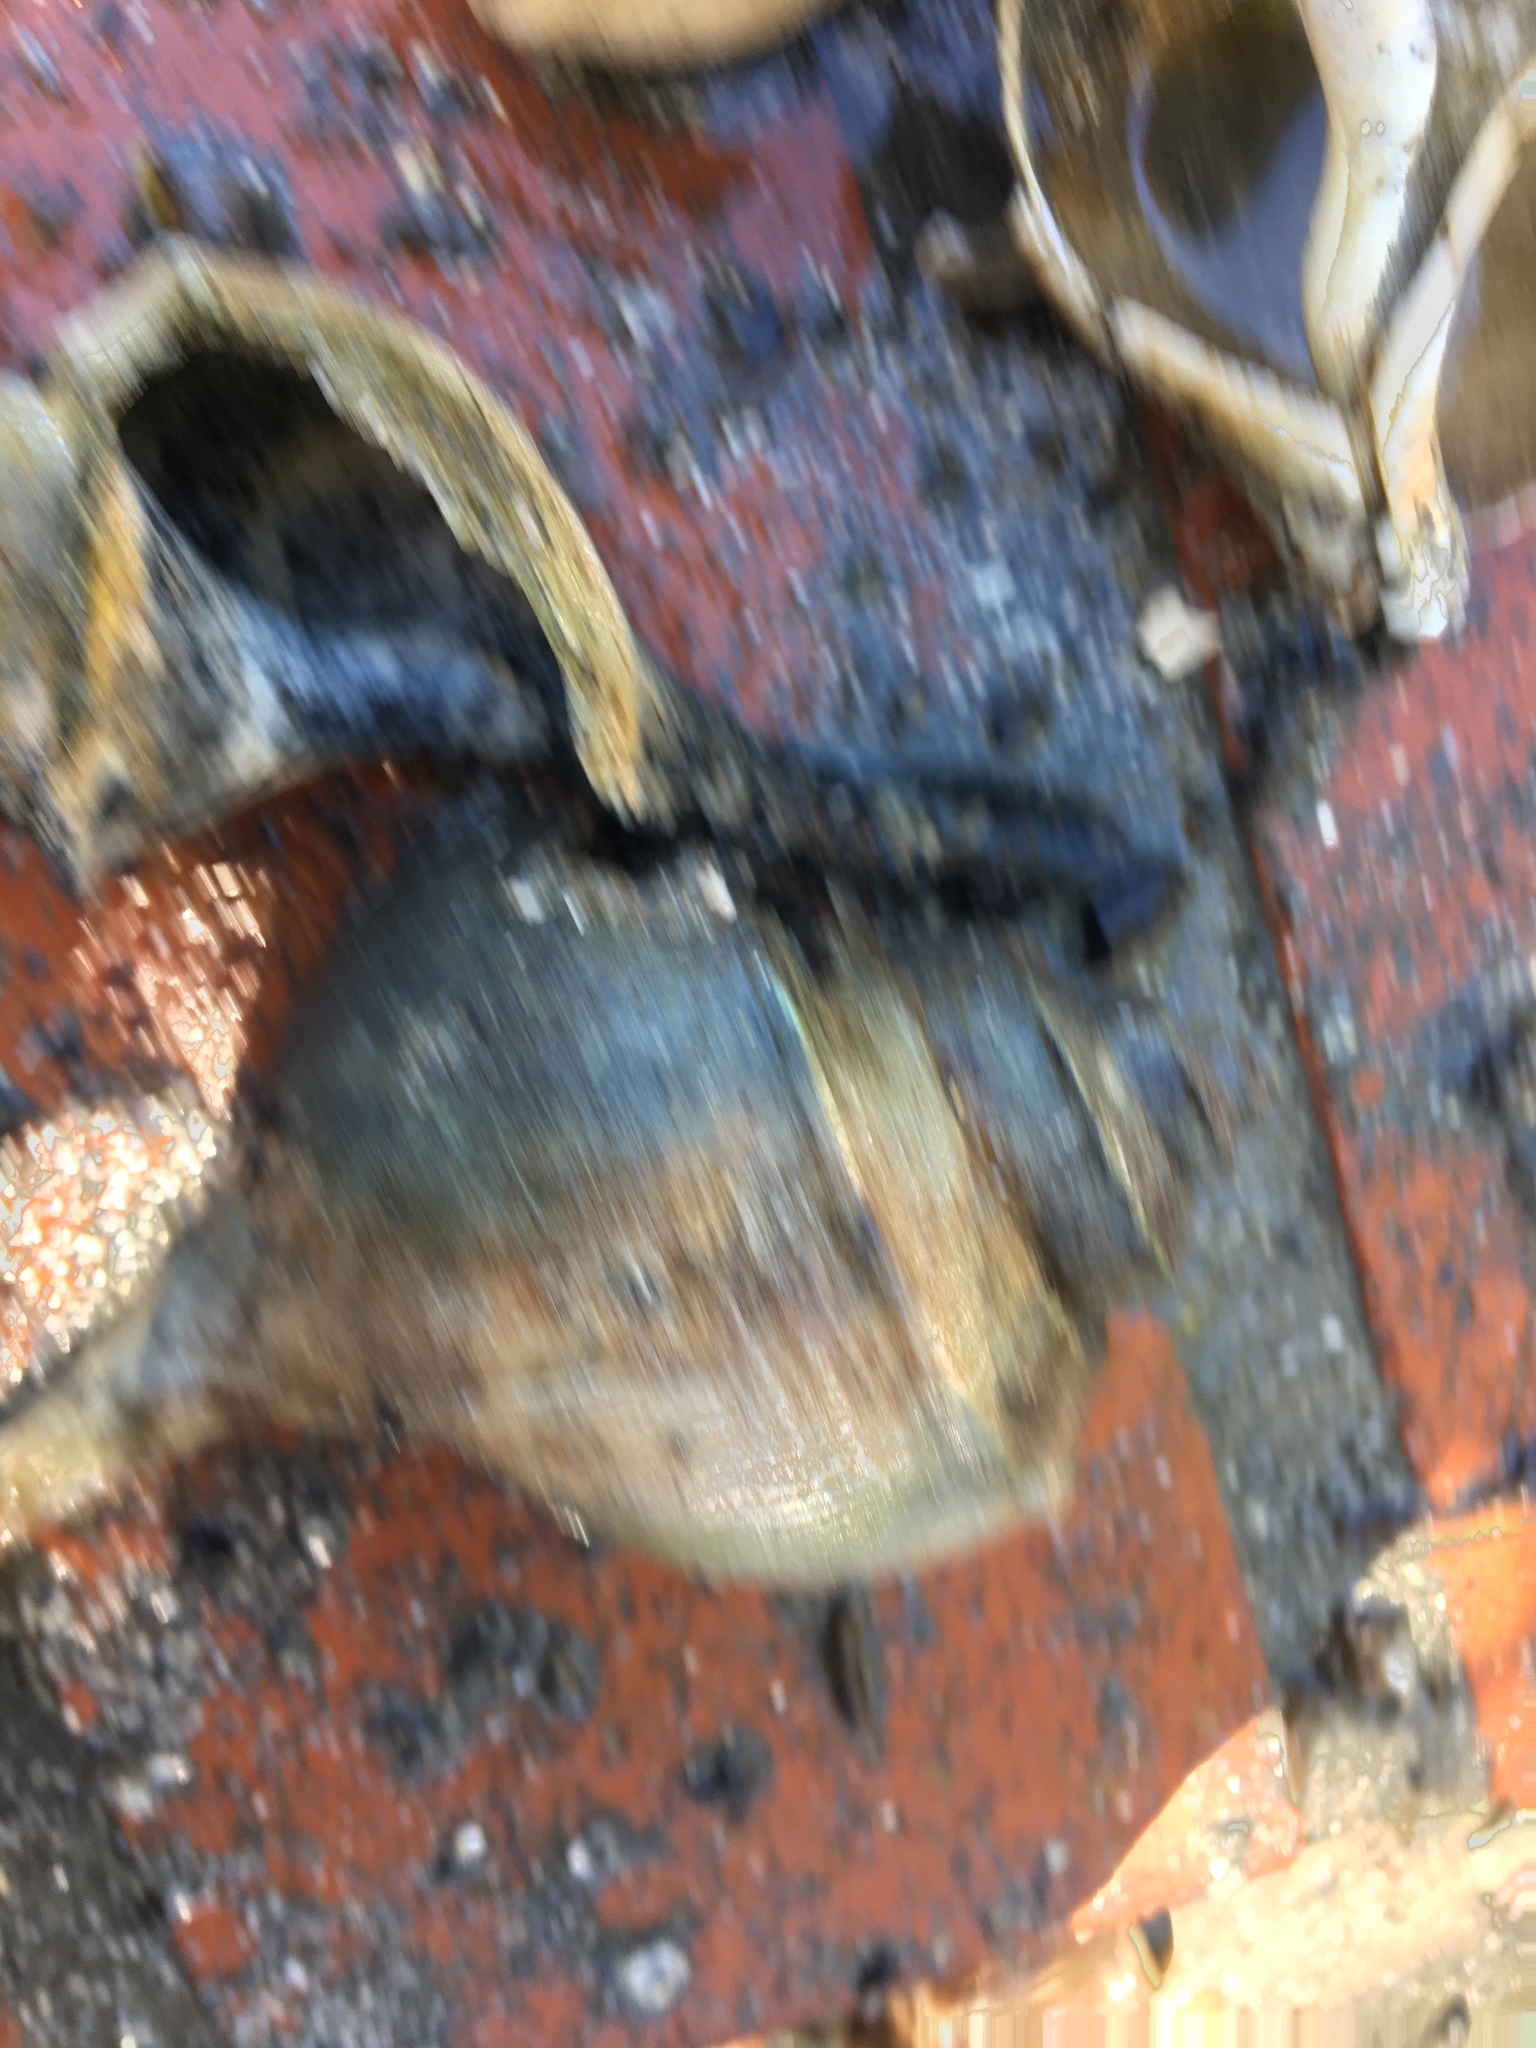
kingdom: Animalia
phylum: Mollusca
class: Gastropoda
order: Neogastropoda
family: Busyconidae
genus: Busycotypus
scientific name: Busycotypus canaliculatus
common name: Channeled whelk
